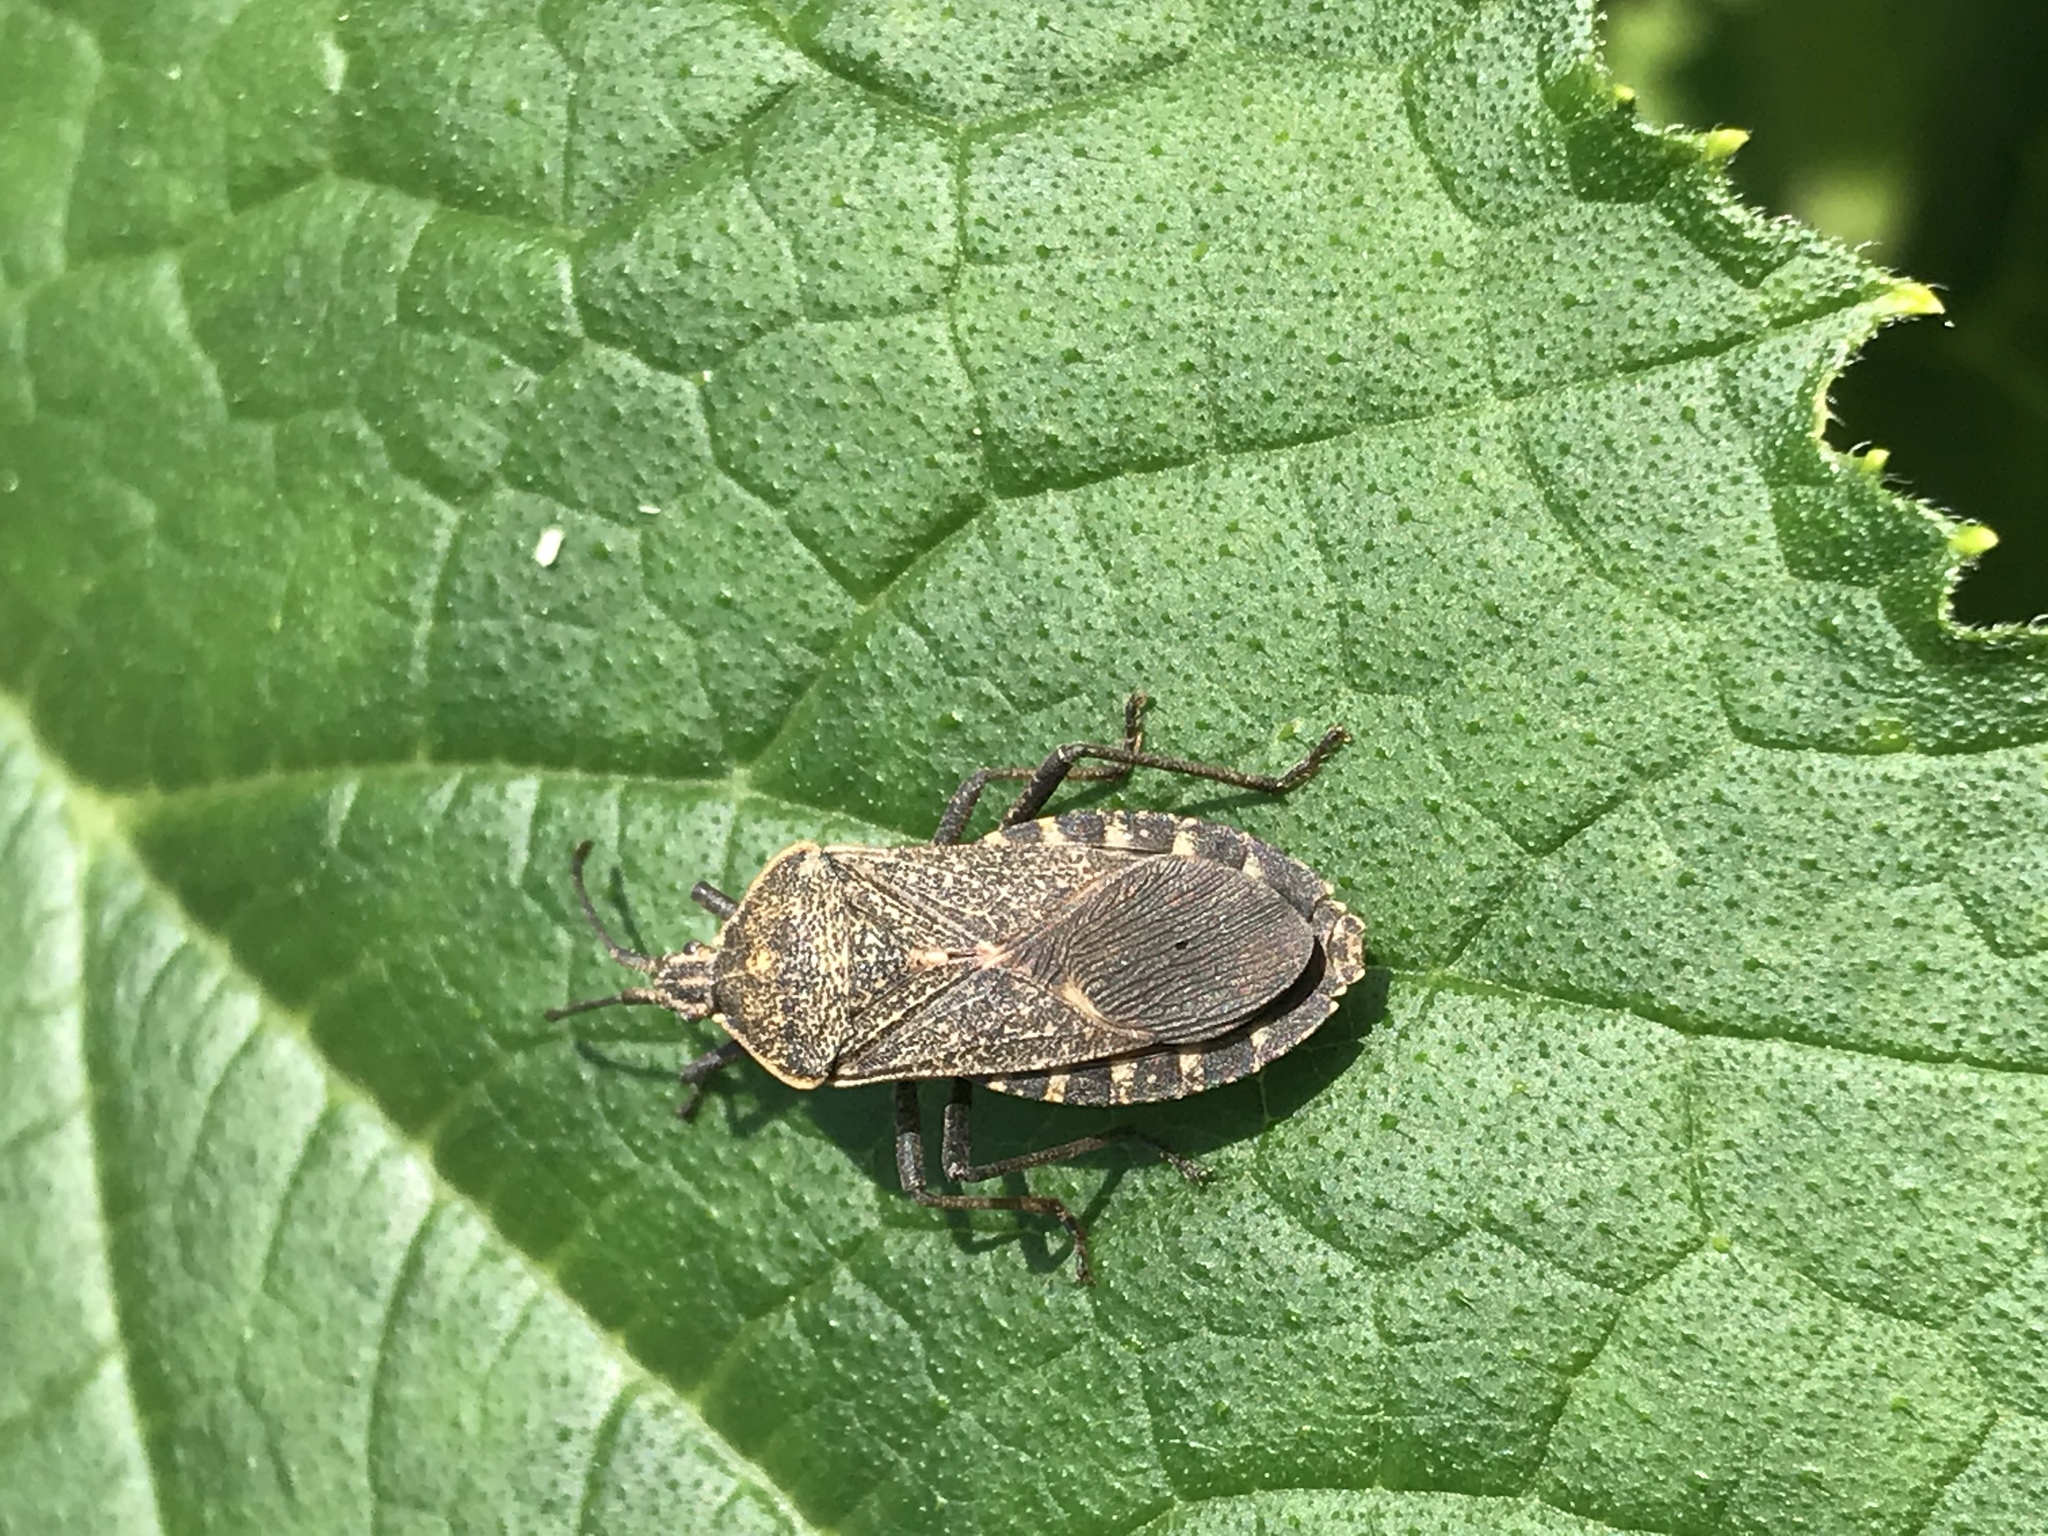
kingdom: Animalia
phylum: Arthropoda
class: Insecta
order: Hemiptera
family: Coreidae
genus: Anasa
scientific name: Anasa tristis
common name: Squash bug
